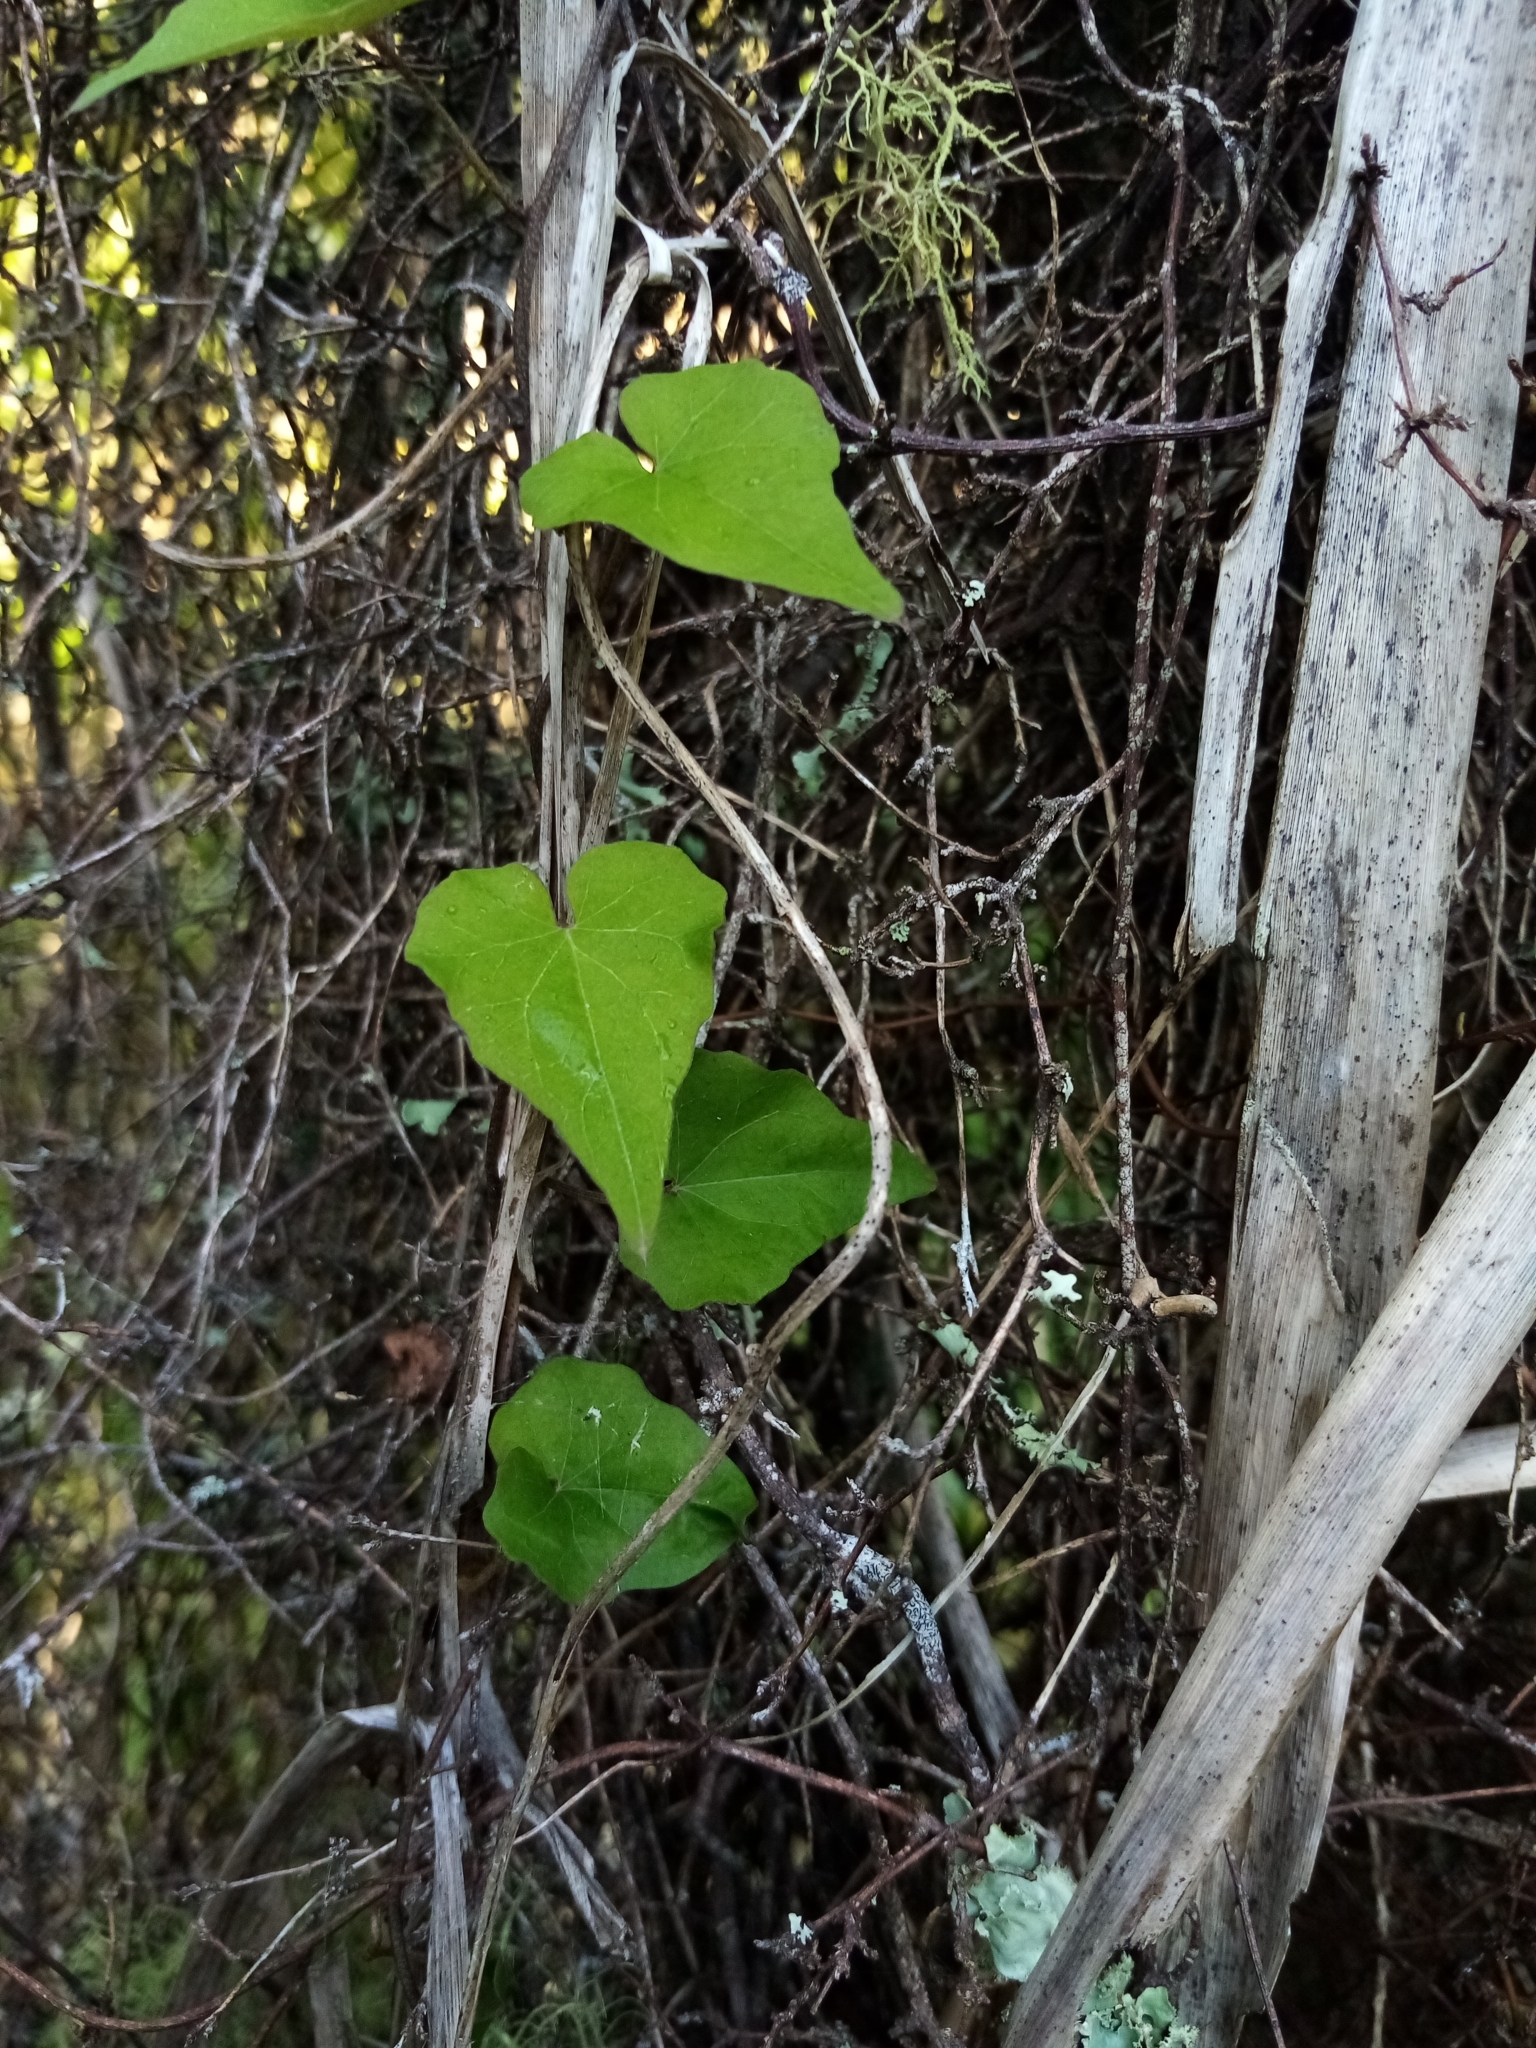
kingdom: Plantae
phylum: Tracheophyta
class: Magnoliopsida
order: Solanales
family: Convolvulaceae
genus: Calystegia
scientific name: Calystegia tuguriorum
